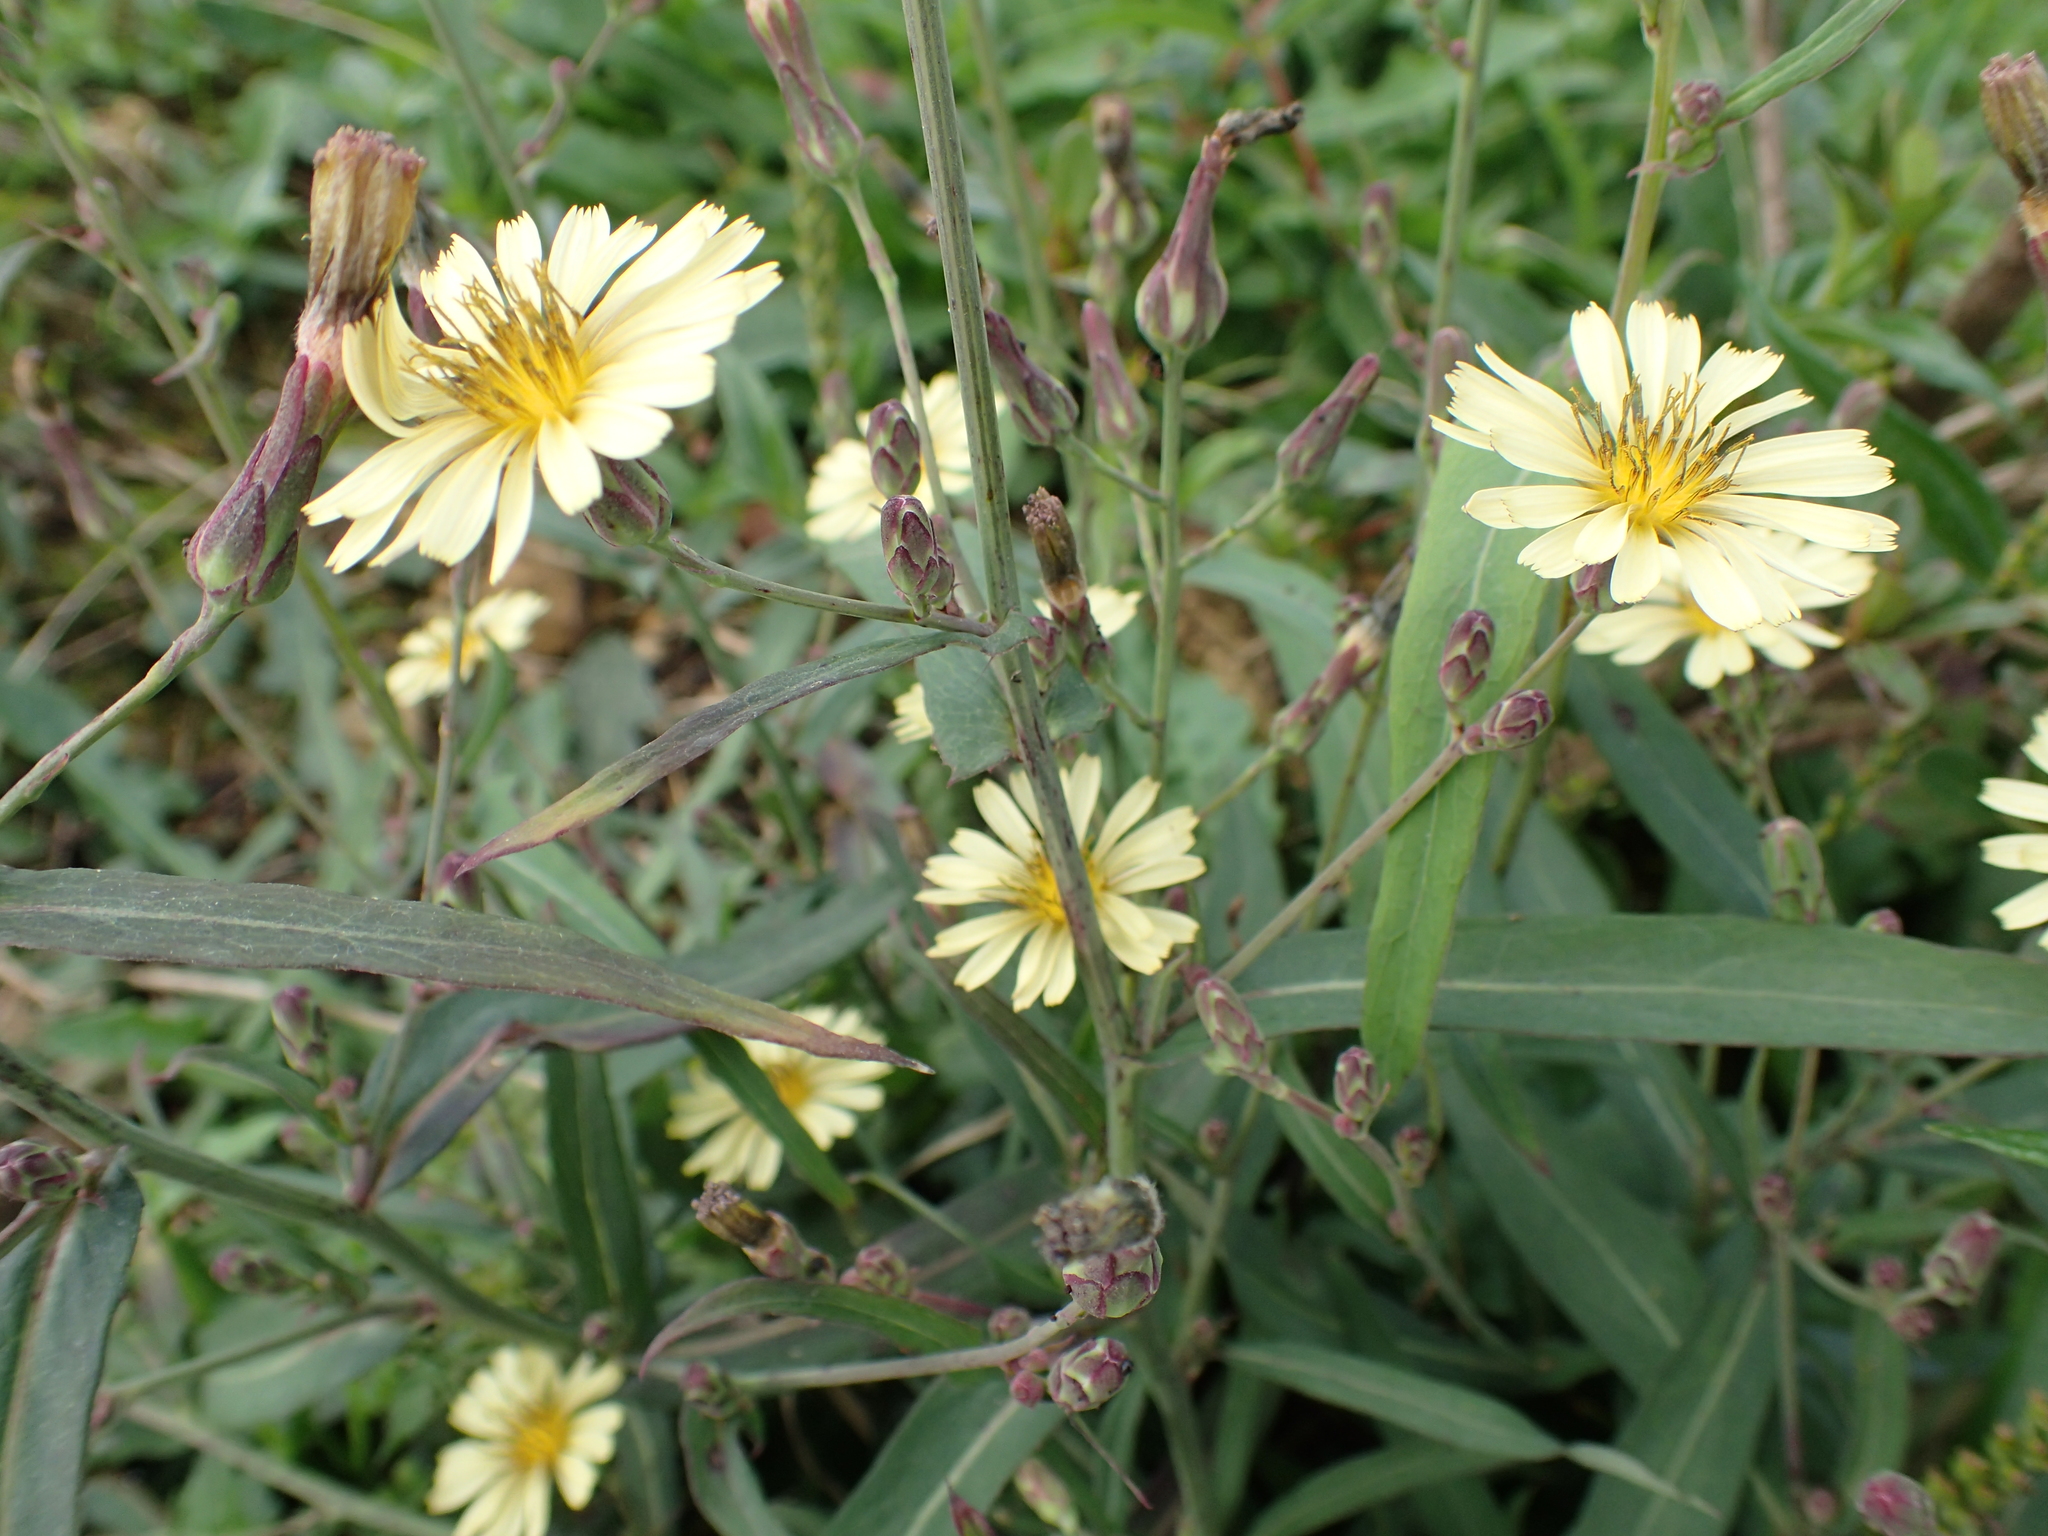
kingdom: Plantae
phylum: Tracheophyta
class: Magnoliopsida
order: Asterales
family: Asteraceae
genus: Lactuca
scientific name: Lactuca indica
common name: Wild lettuce
